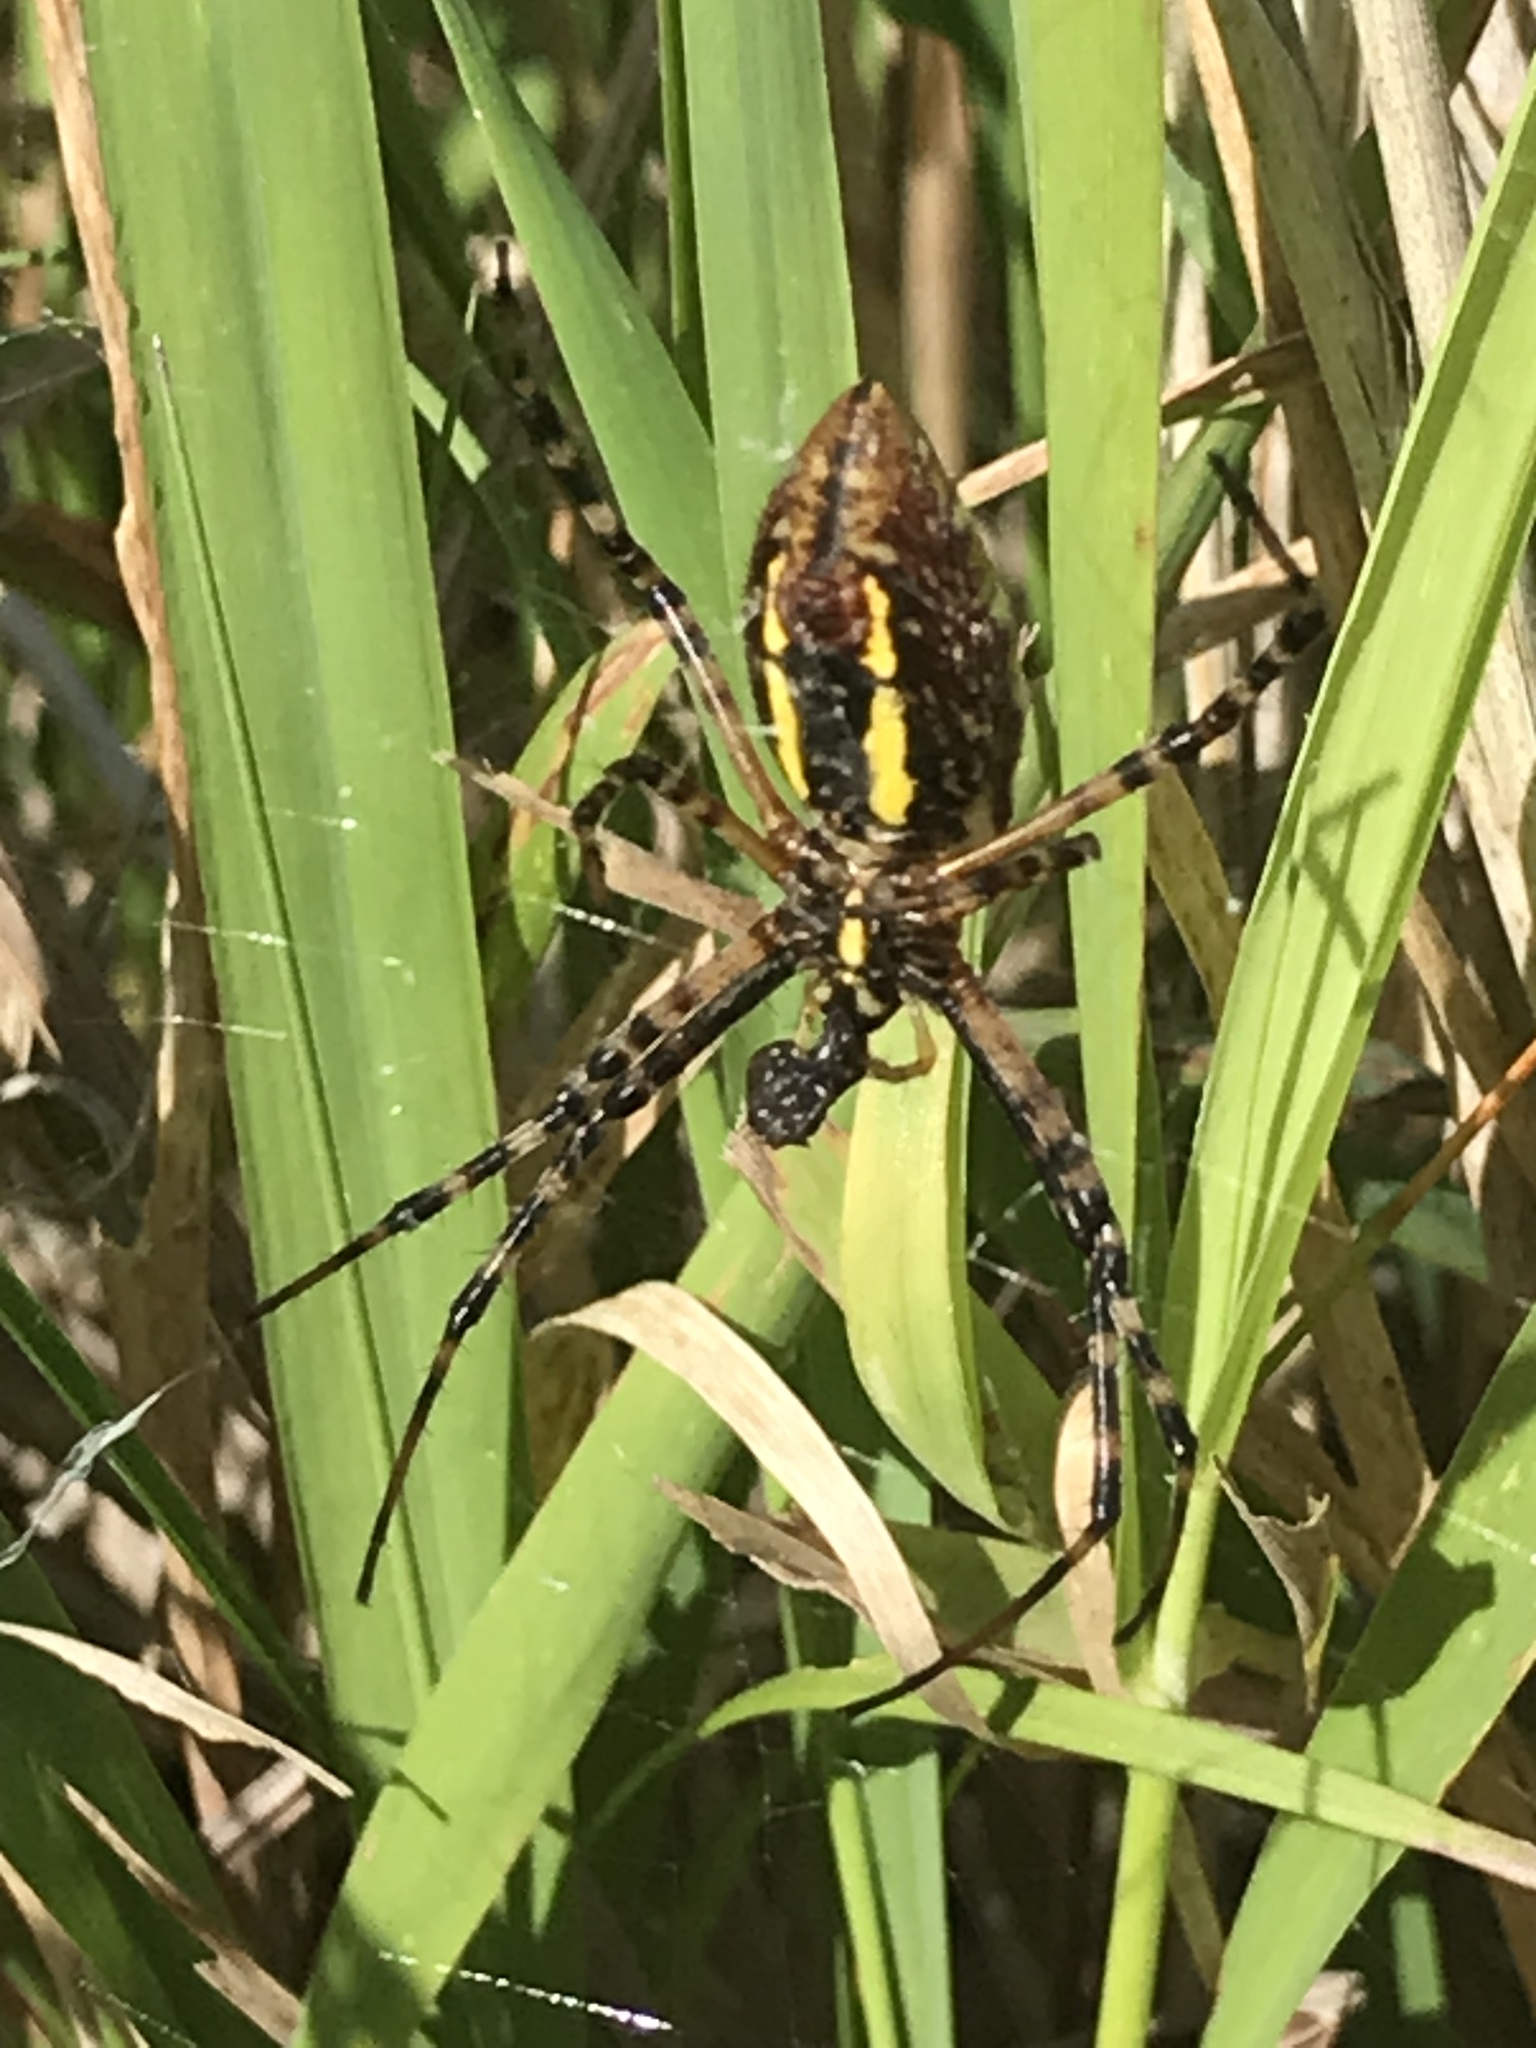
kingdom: Animalia
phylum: Arthropoda
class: Arachnida
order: Araneae
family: Araneidae
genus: Argiope
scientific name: Argiope trifasciata
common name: Banded garden spider
